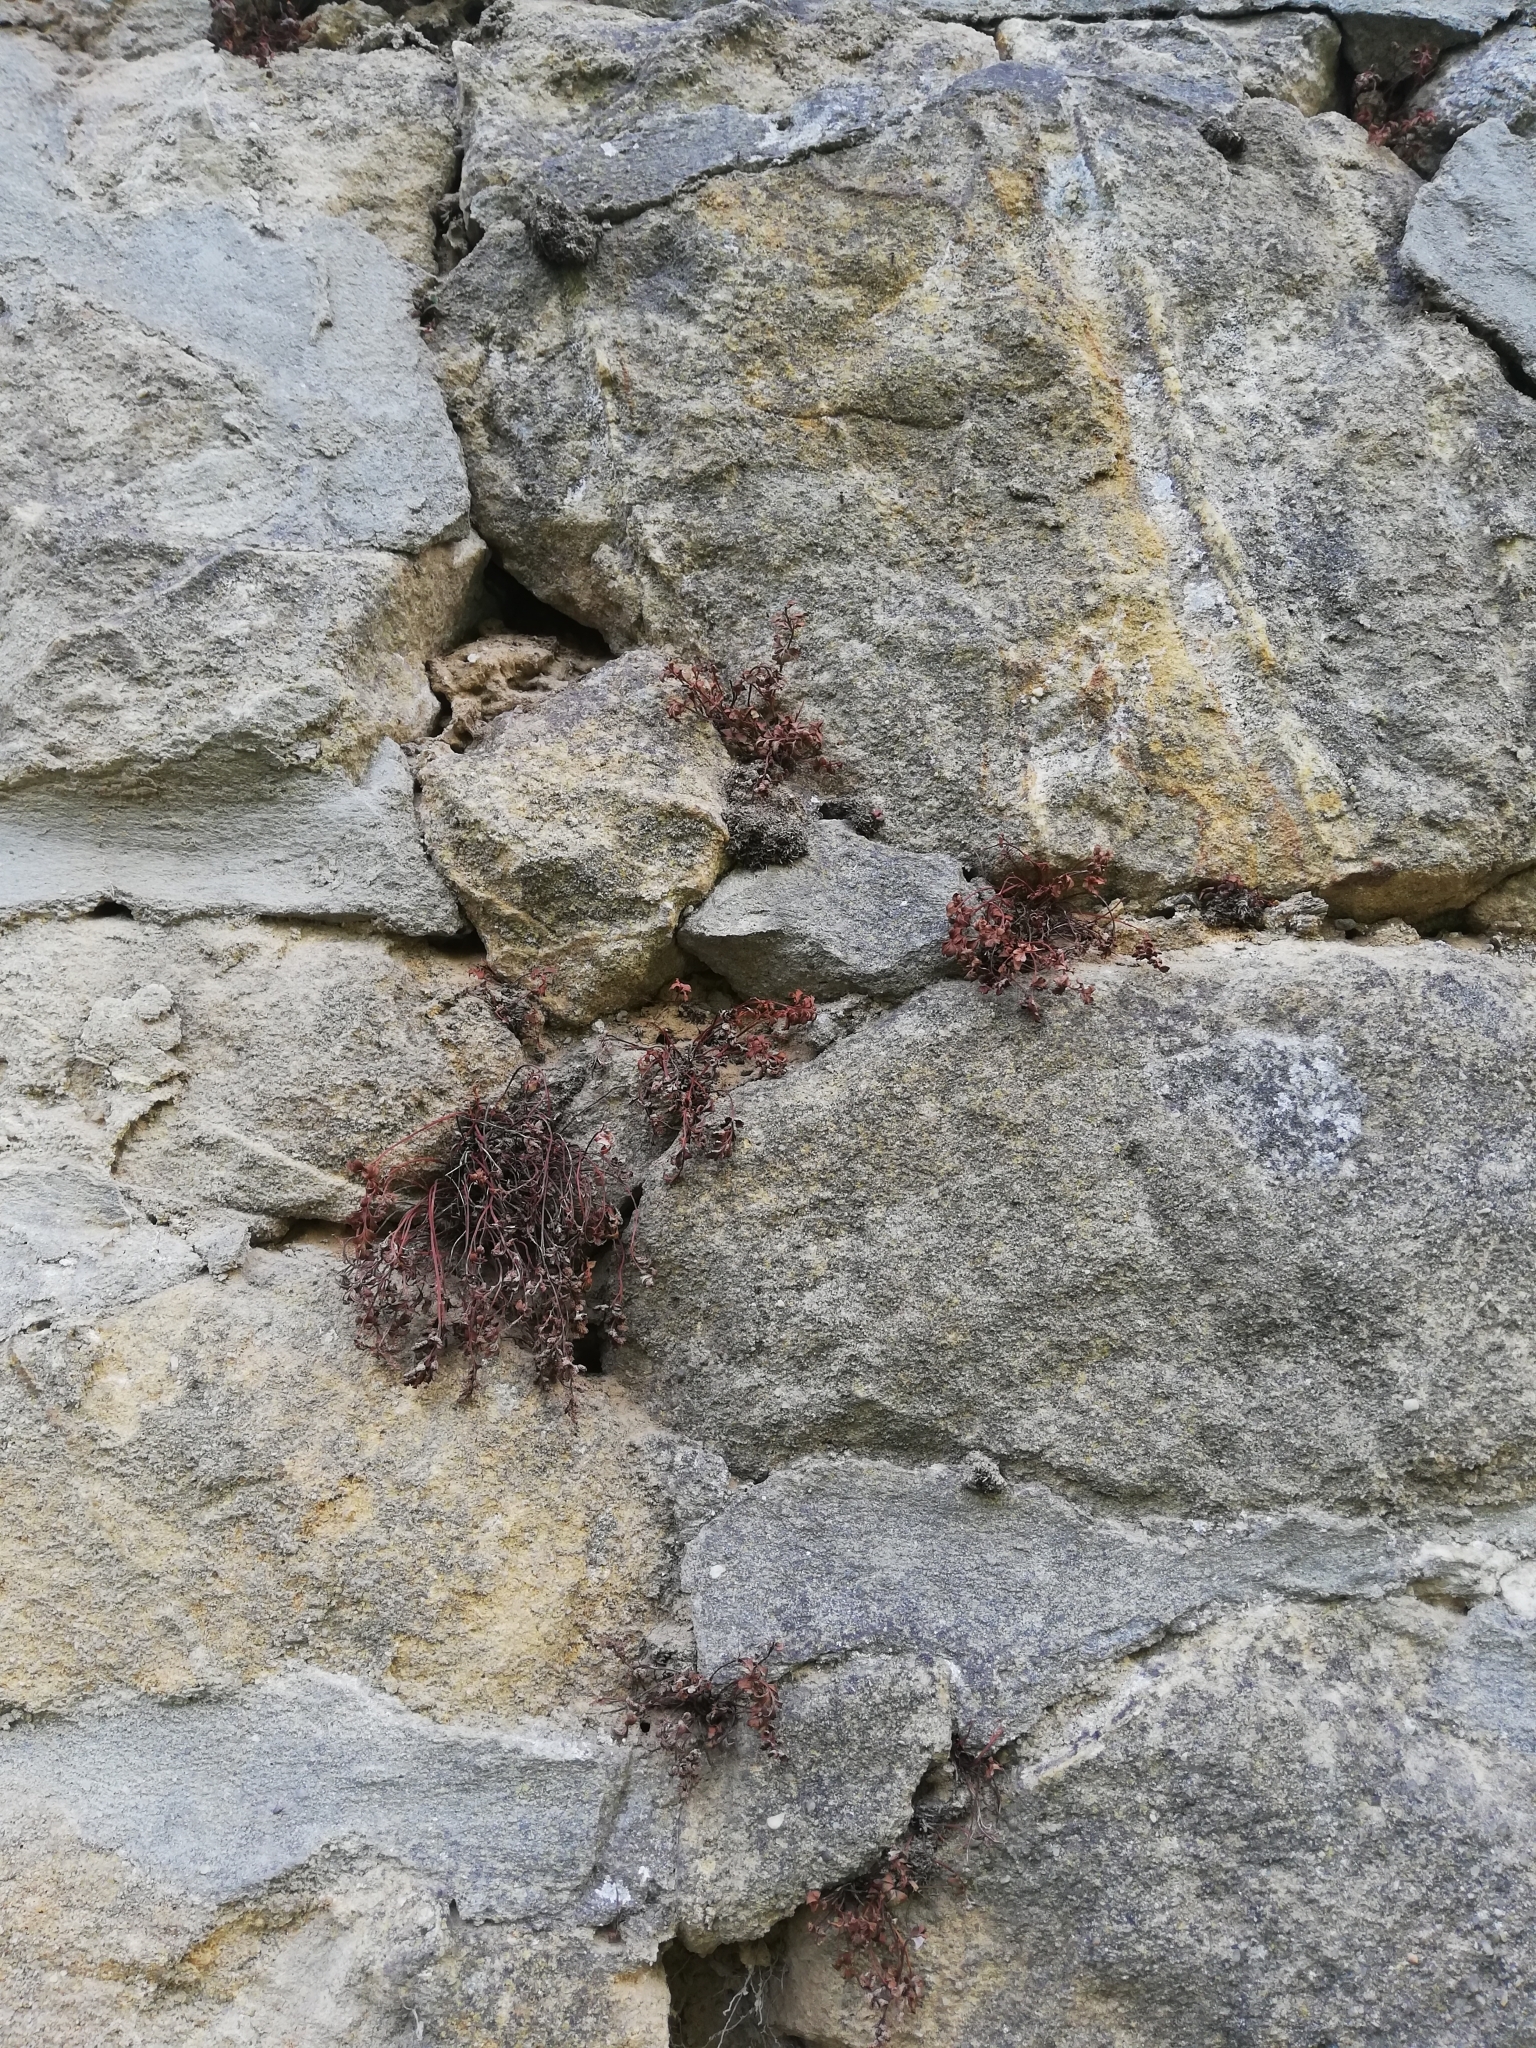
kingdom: Plantae
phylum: Tracheophyta
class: Polypodiopsida
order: Polypodiales
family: Aspleniaceae
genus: Asplenium
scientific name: Asplenium ruta-muraria
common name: Wall-rue
